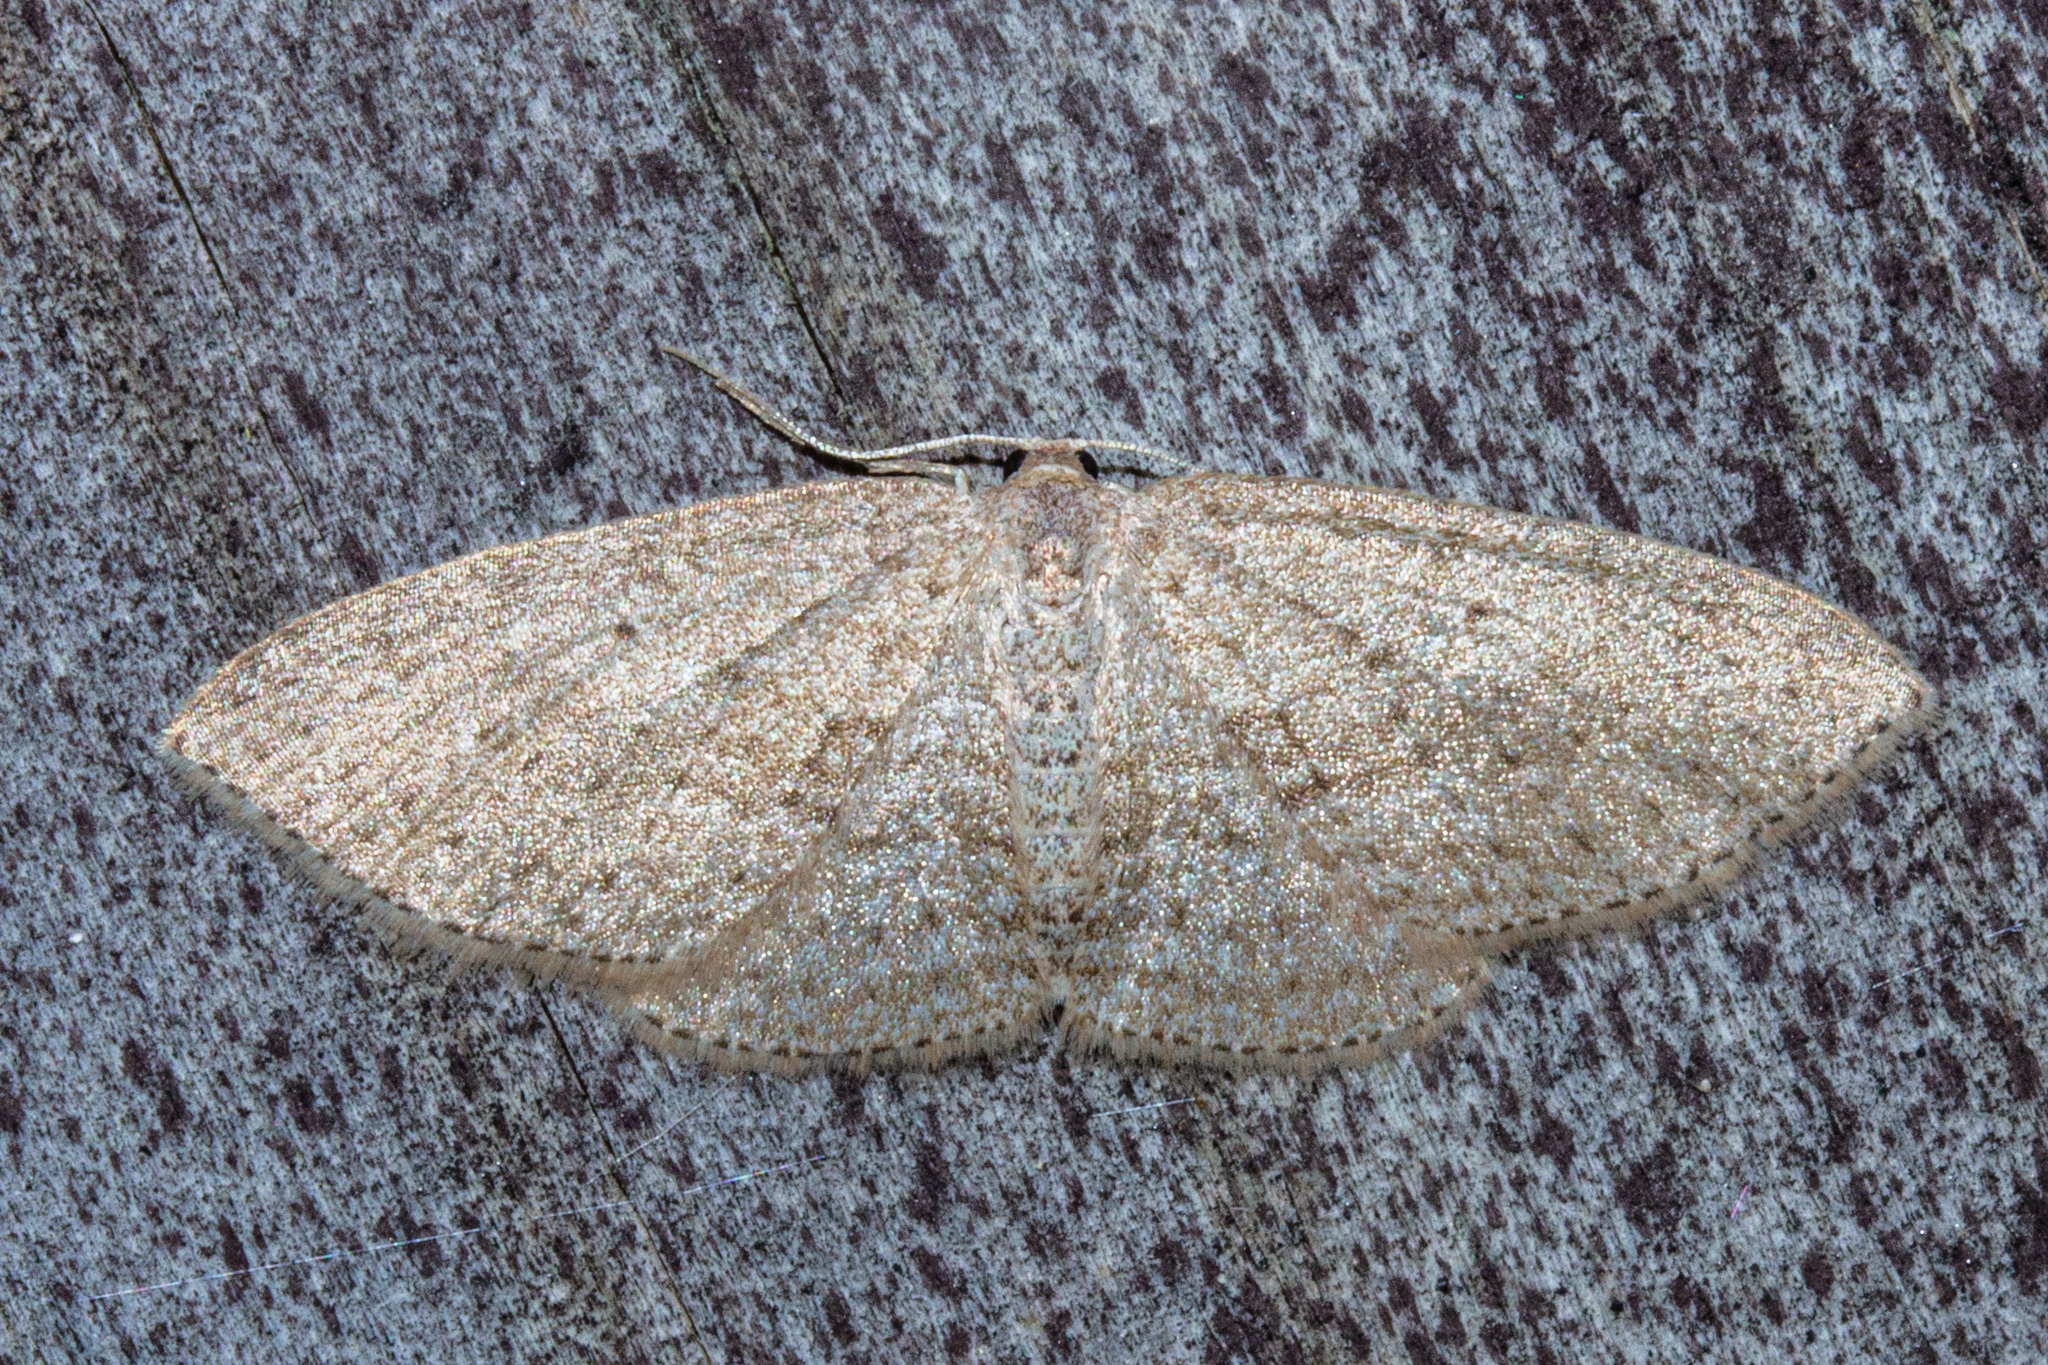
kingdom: Animalia
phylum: Arthropoda
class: Insecta
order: Lepidoptera
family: Geometridae
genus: Poecilasthena
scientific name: Poecilasthena schistaria
